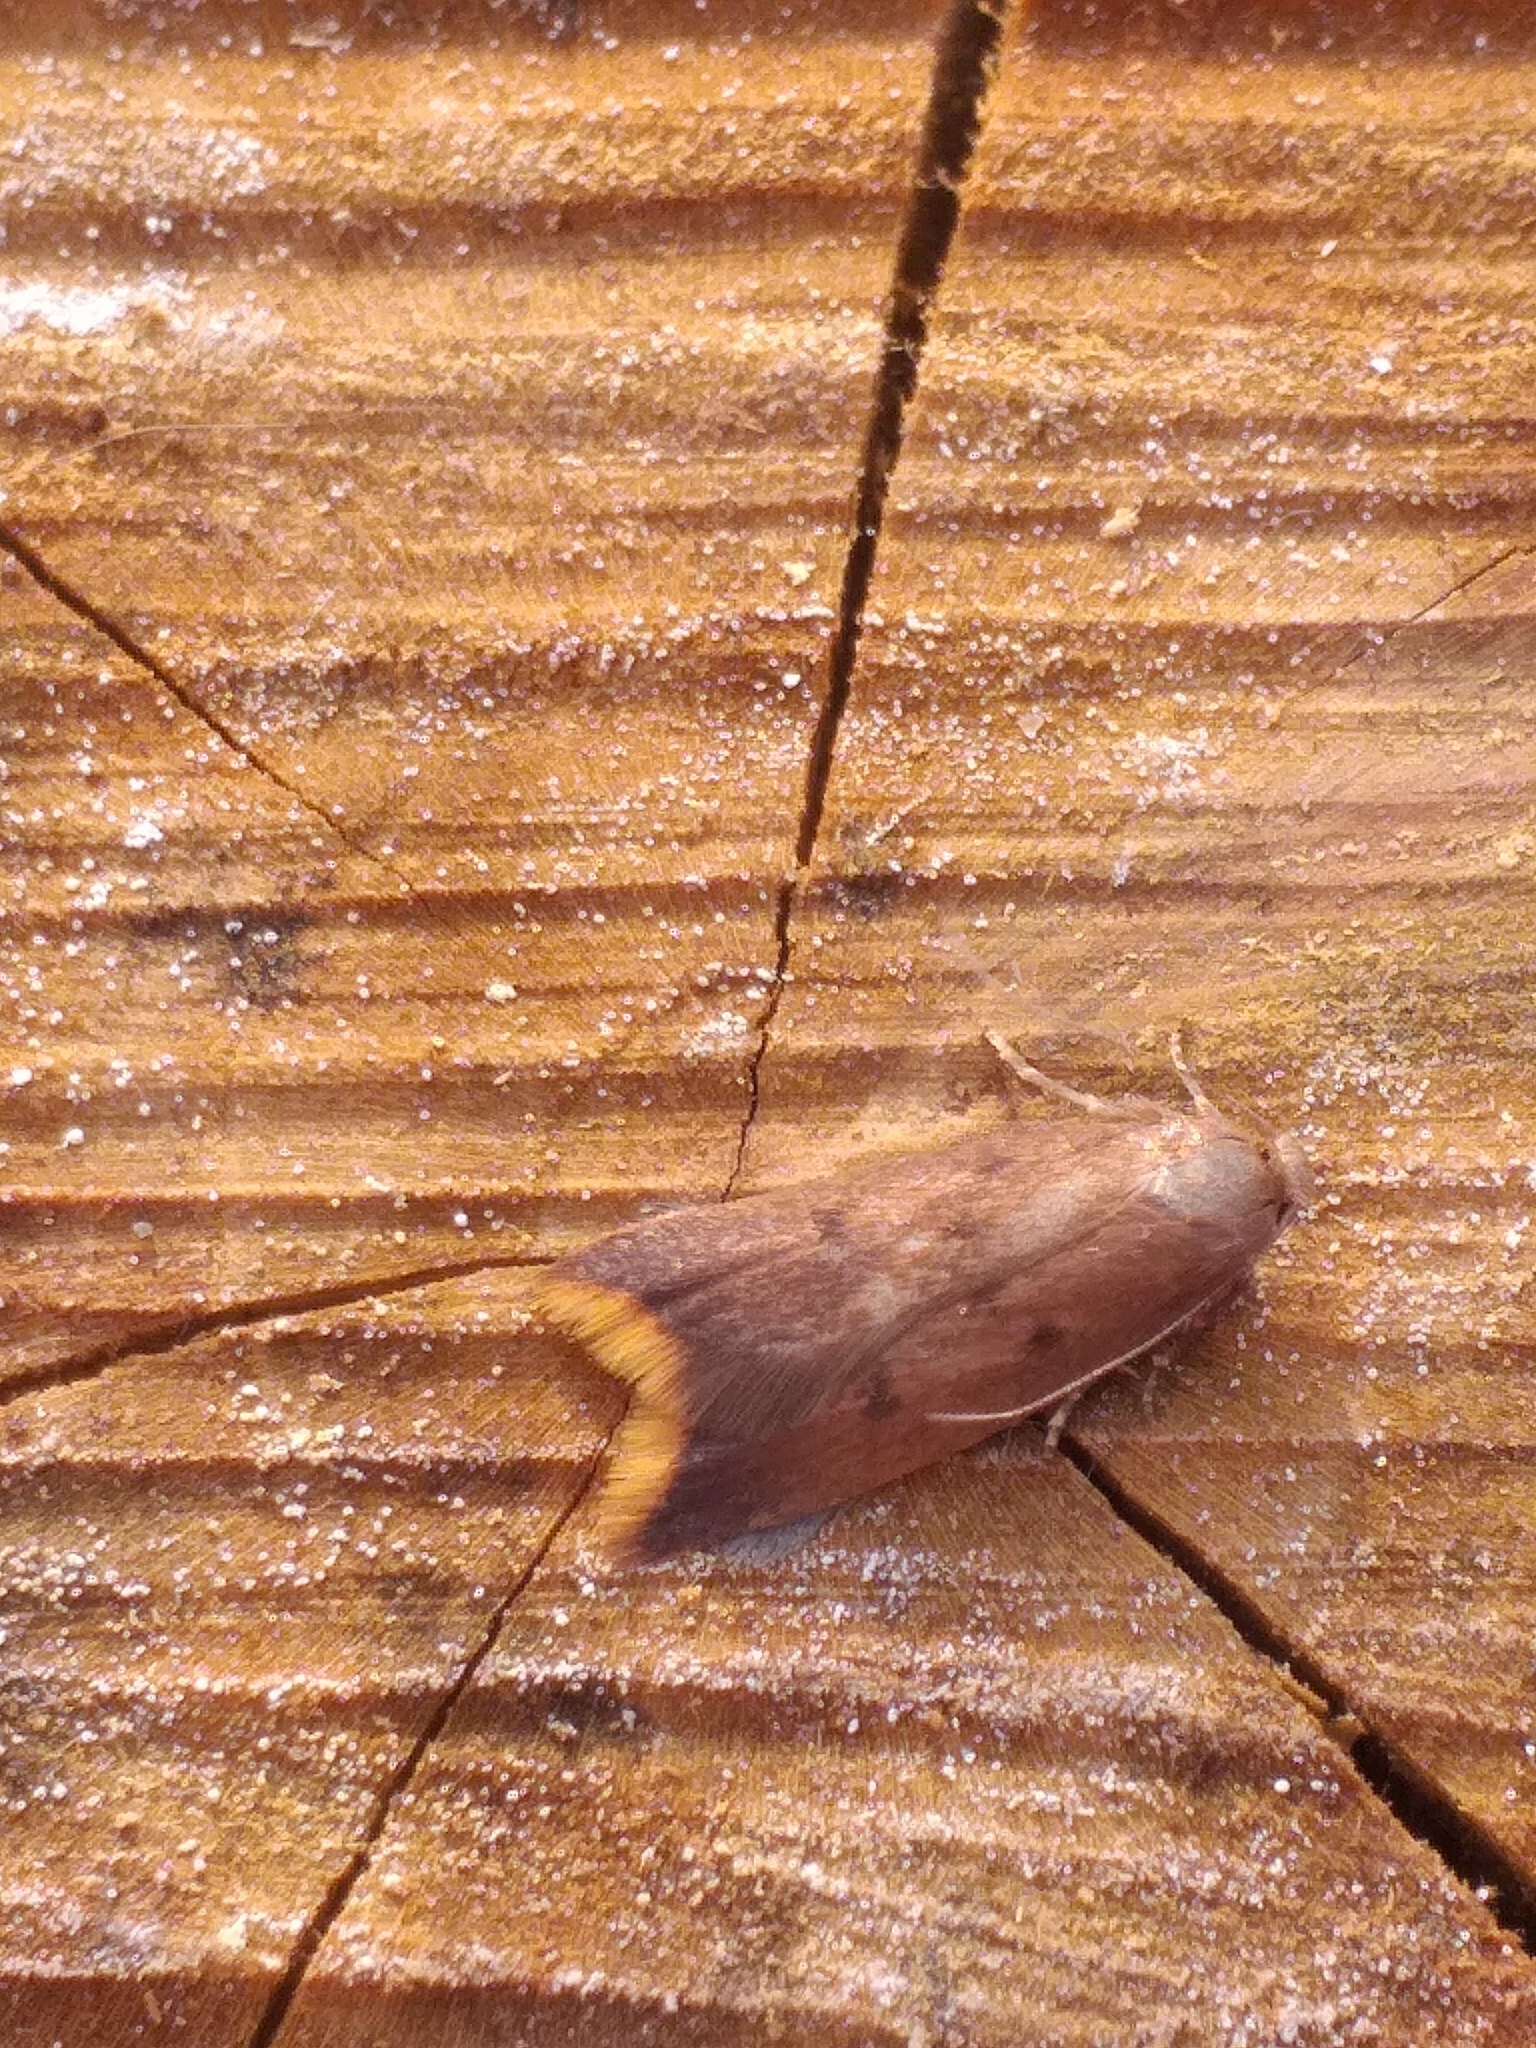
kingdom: Animalia
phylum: Arthropoda
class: Insecta
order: Lepidoptera
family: Oecophoridae
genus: Tachystola
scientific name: Tachystola acroxantha
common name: Ruddy streak
